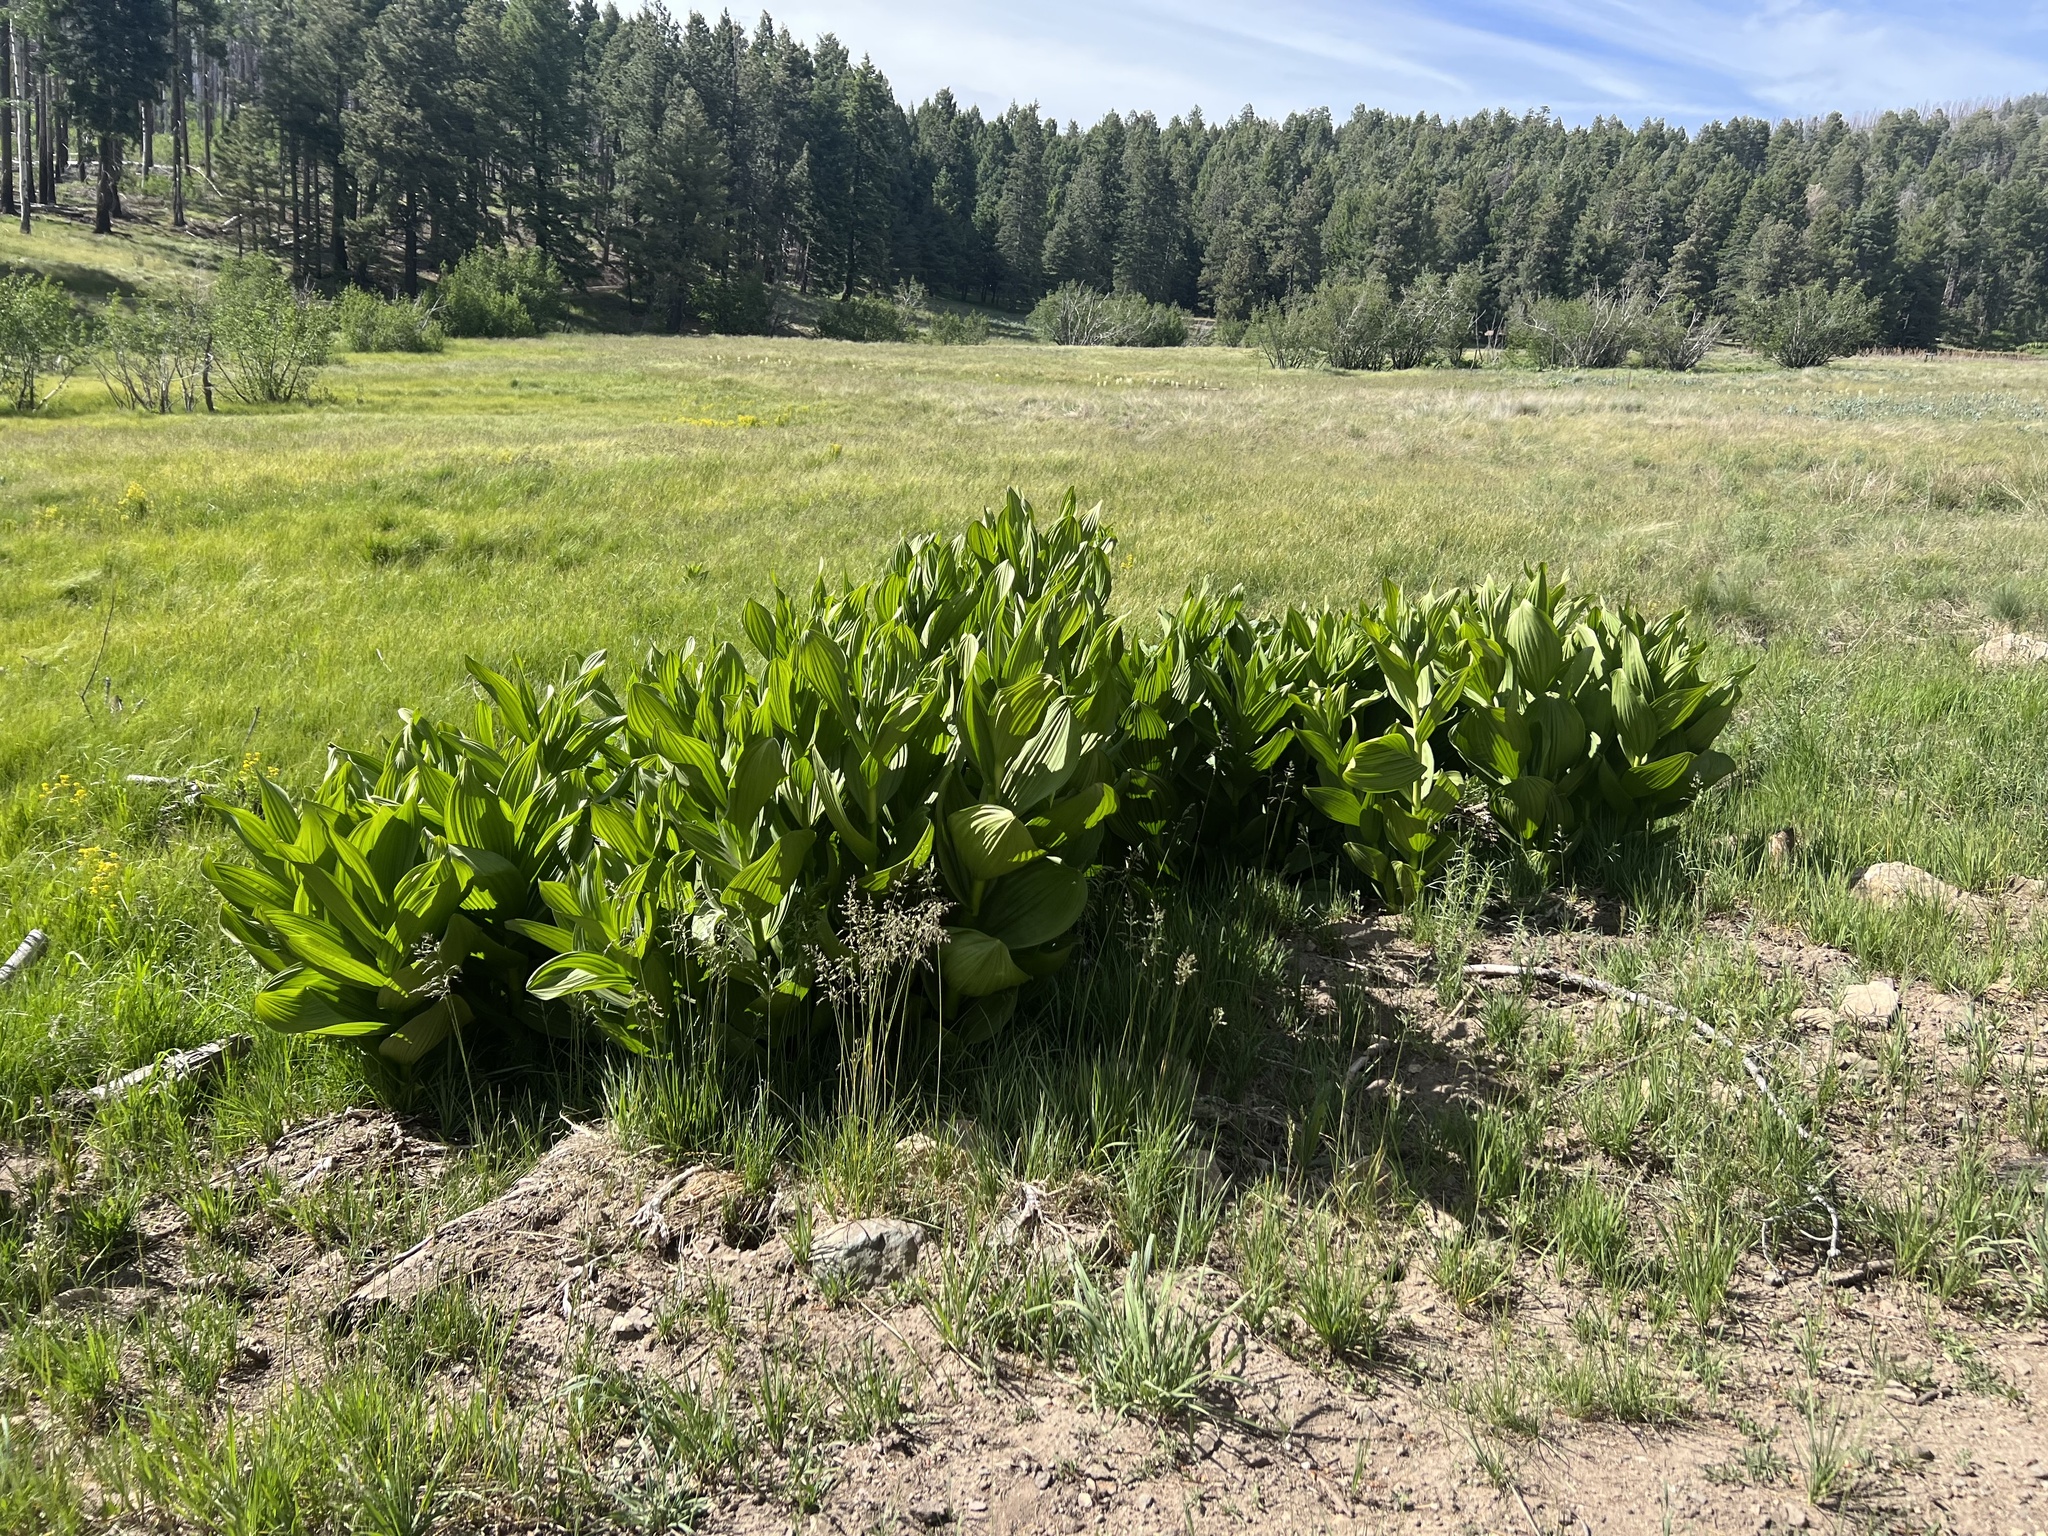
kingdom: Plantae
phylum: Tracheophyta
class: Liliopsida
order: Liliales
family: Melanthiaceae
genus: Veratrum
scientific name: Veratrum californicum
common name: California veratrum
